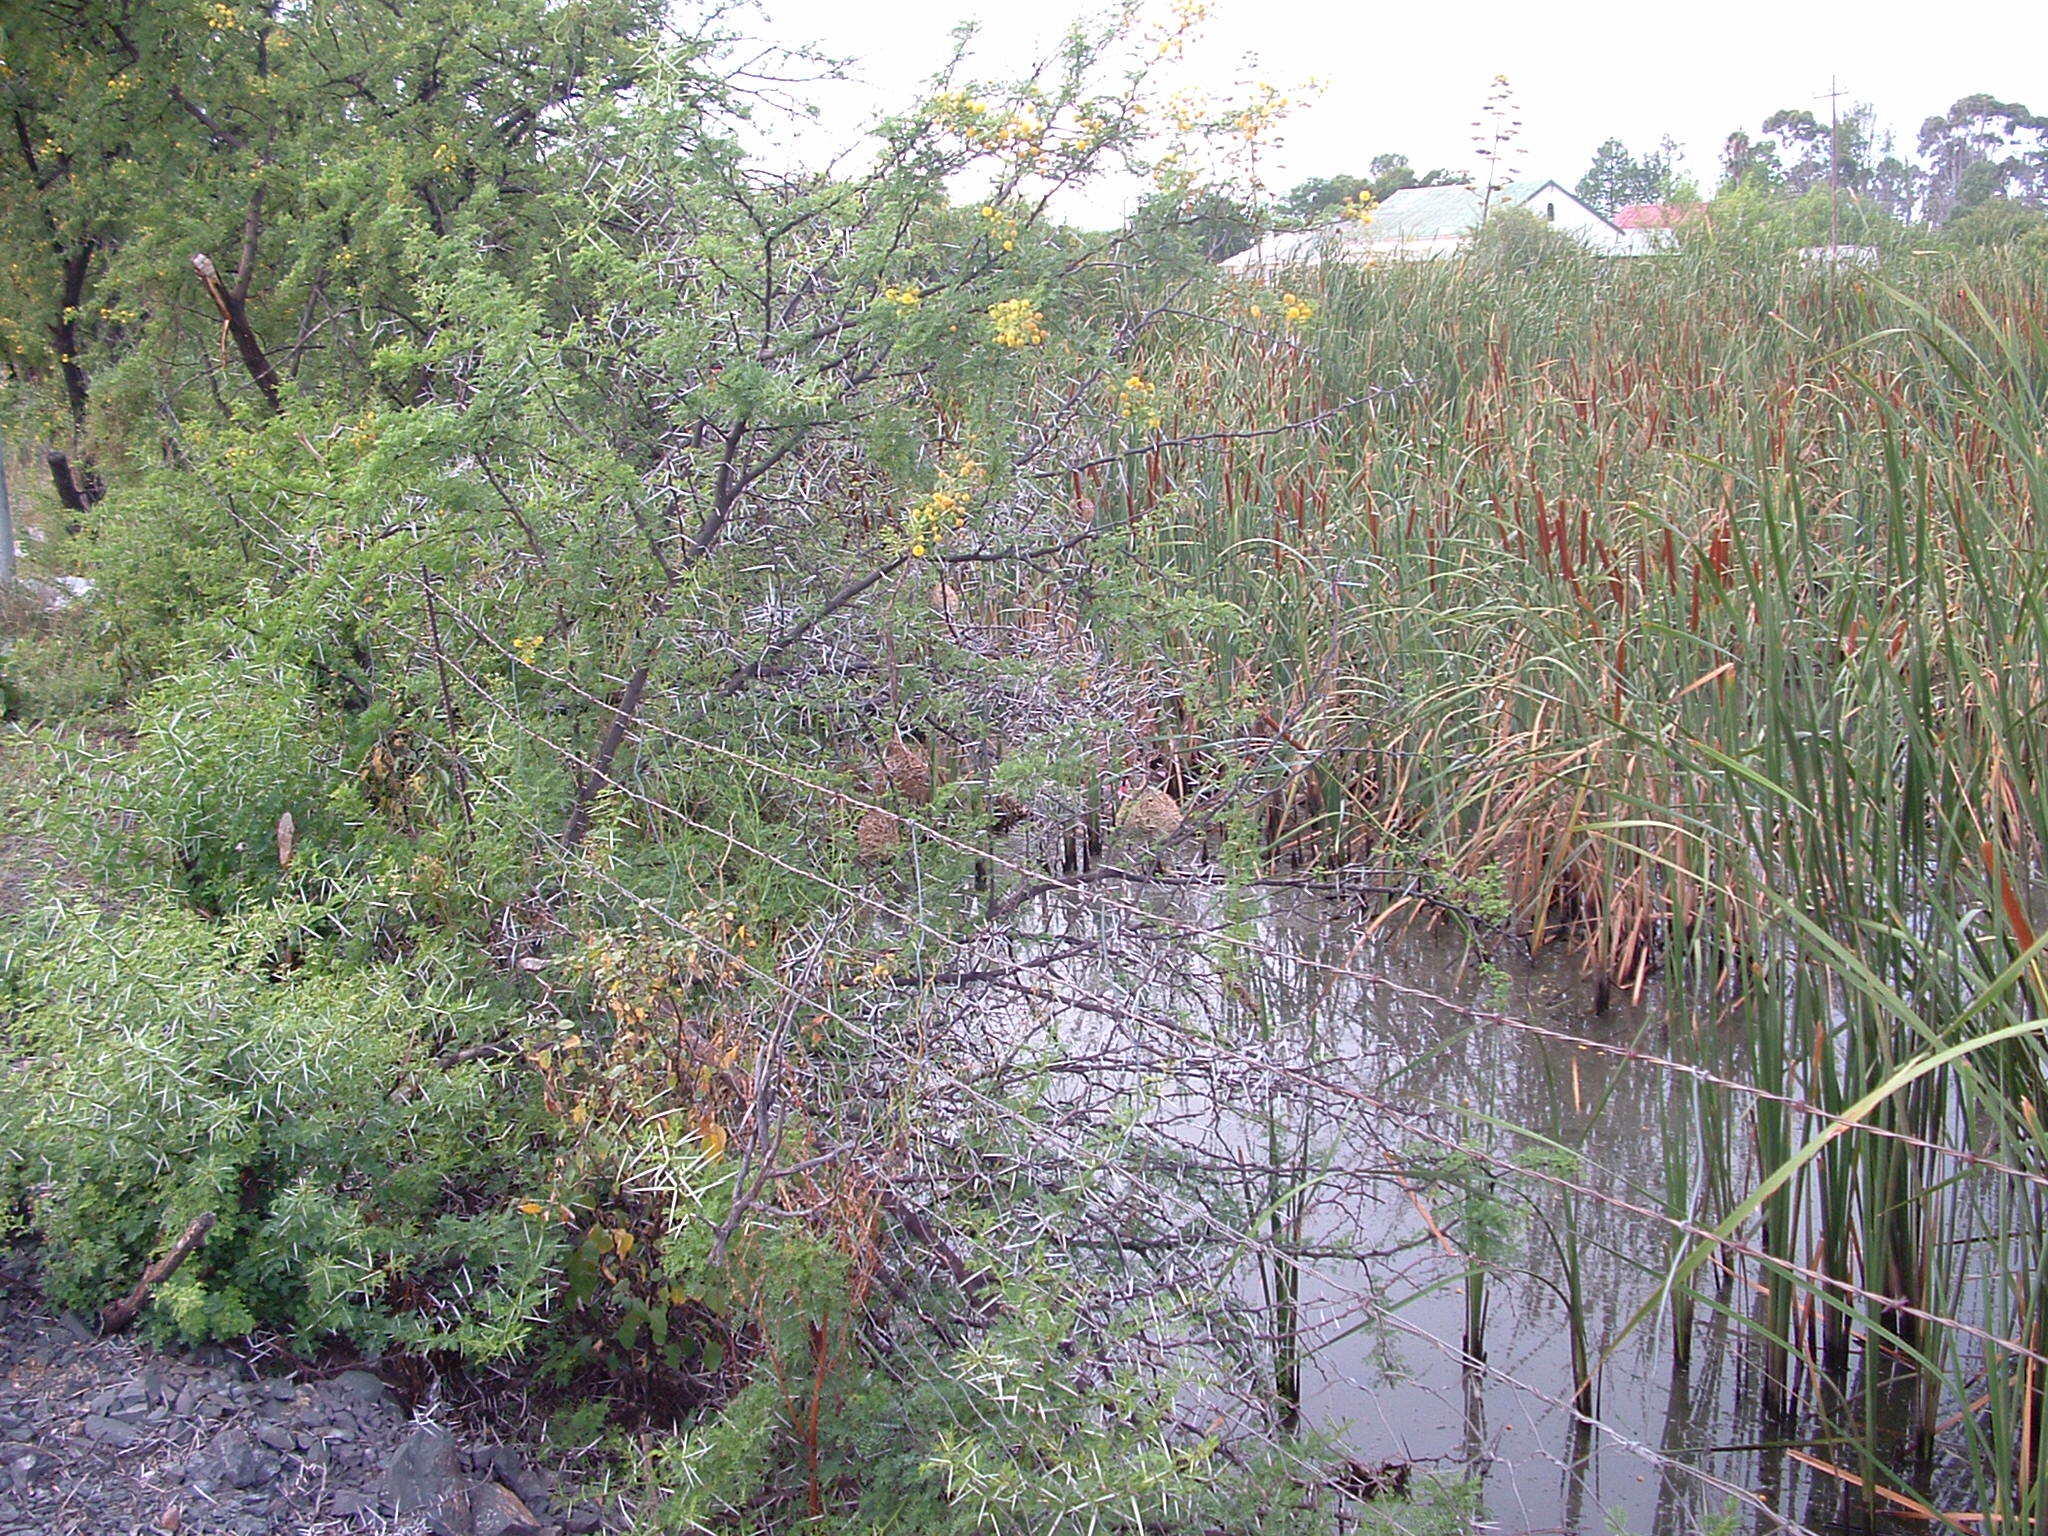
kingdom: Animalia
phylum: Chordata
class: Aves
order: Passeriformes
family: Ploceidae
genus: Ploceus
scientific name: Ploceus velatus
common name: Southern masked weaver
